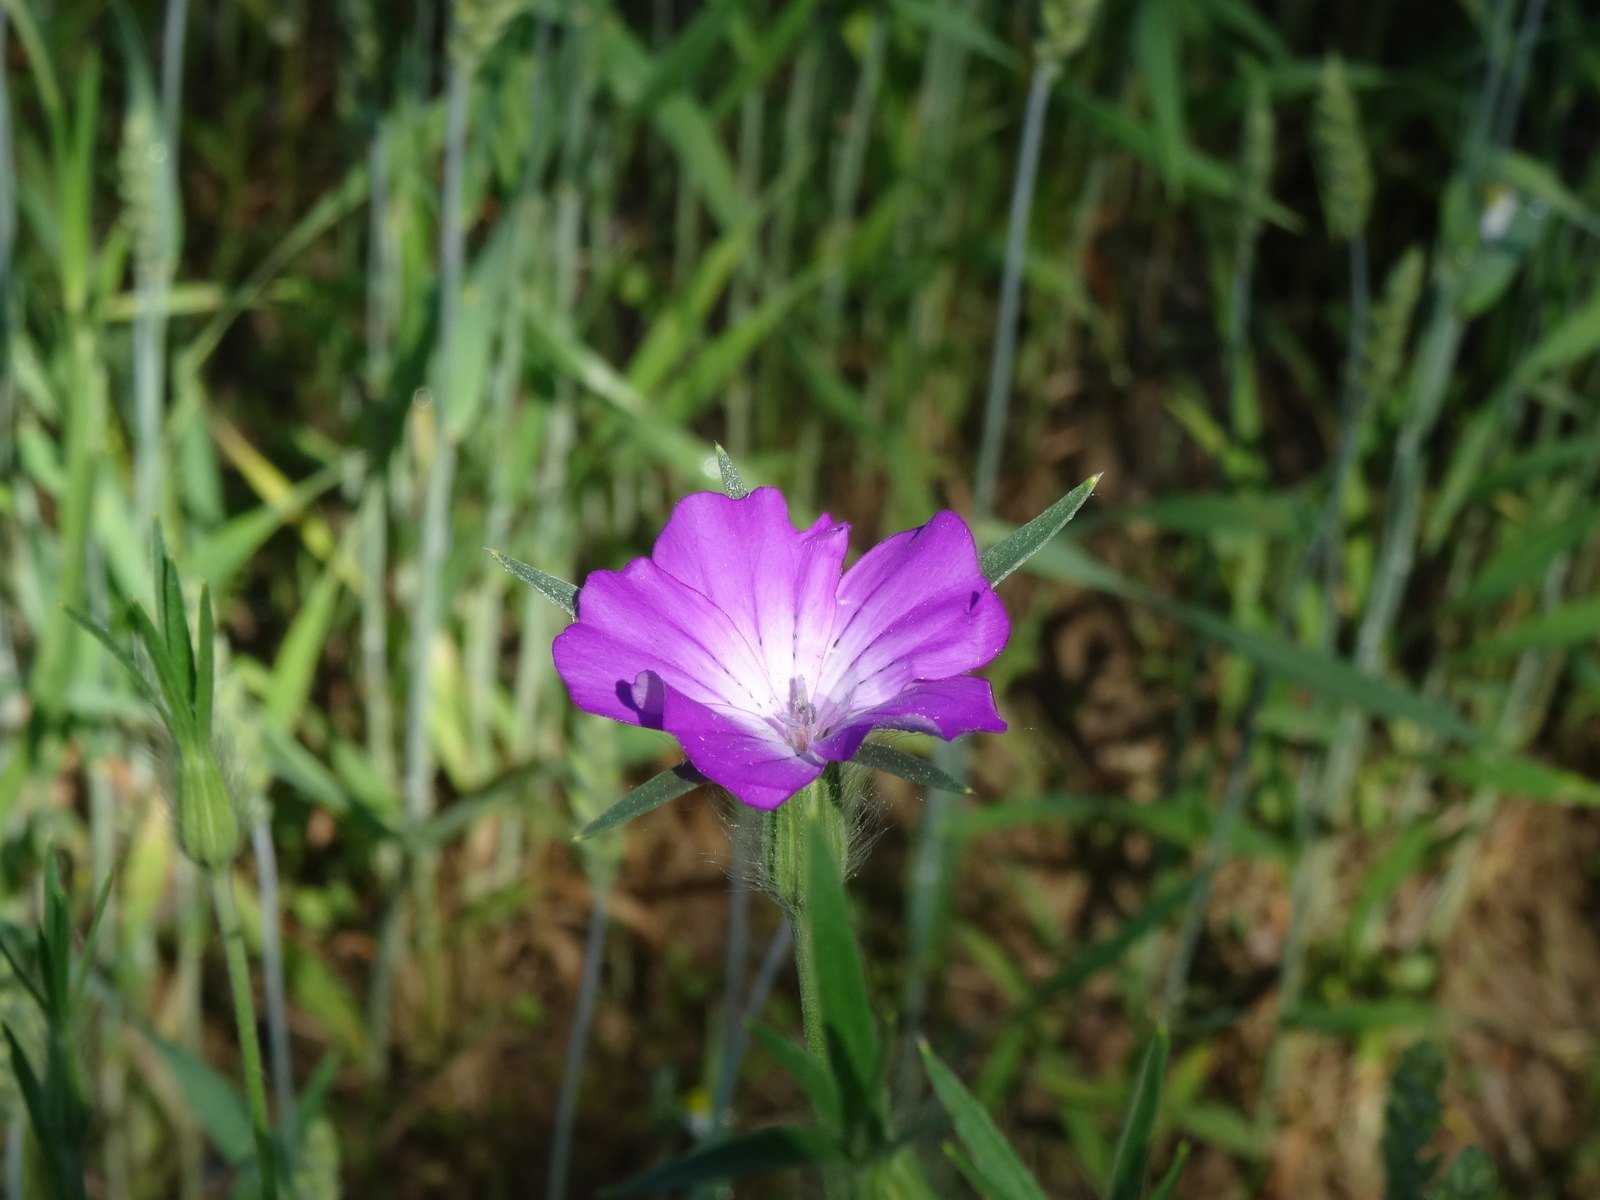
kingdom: Plantae
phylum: Tracheophyta
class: Magnoliopsida
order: Caryophyllales
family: Caryophyllaceae
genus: Agrostemma
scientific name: Agrostemma githago
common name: Common corncockle
